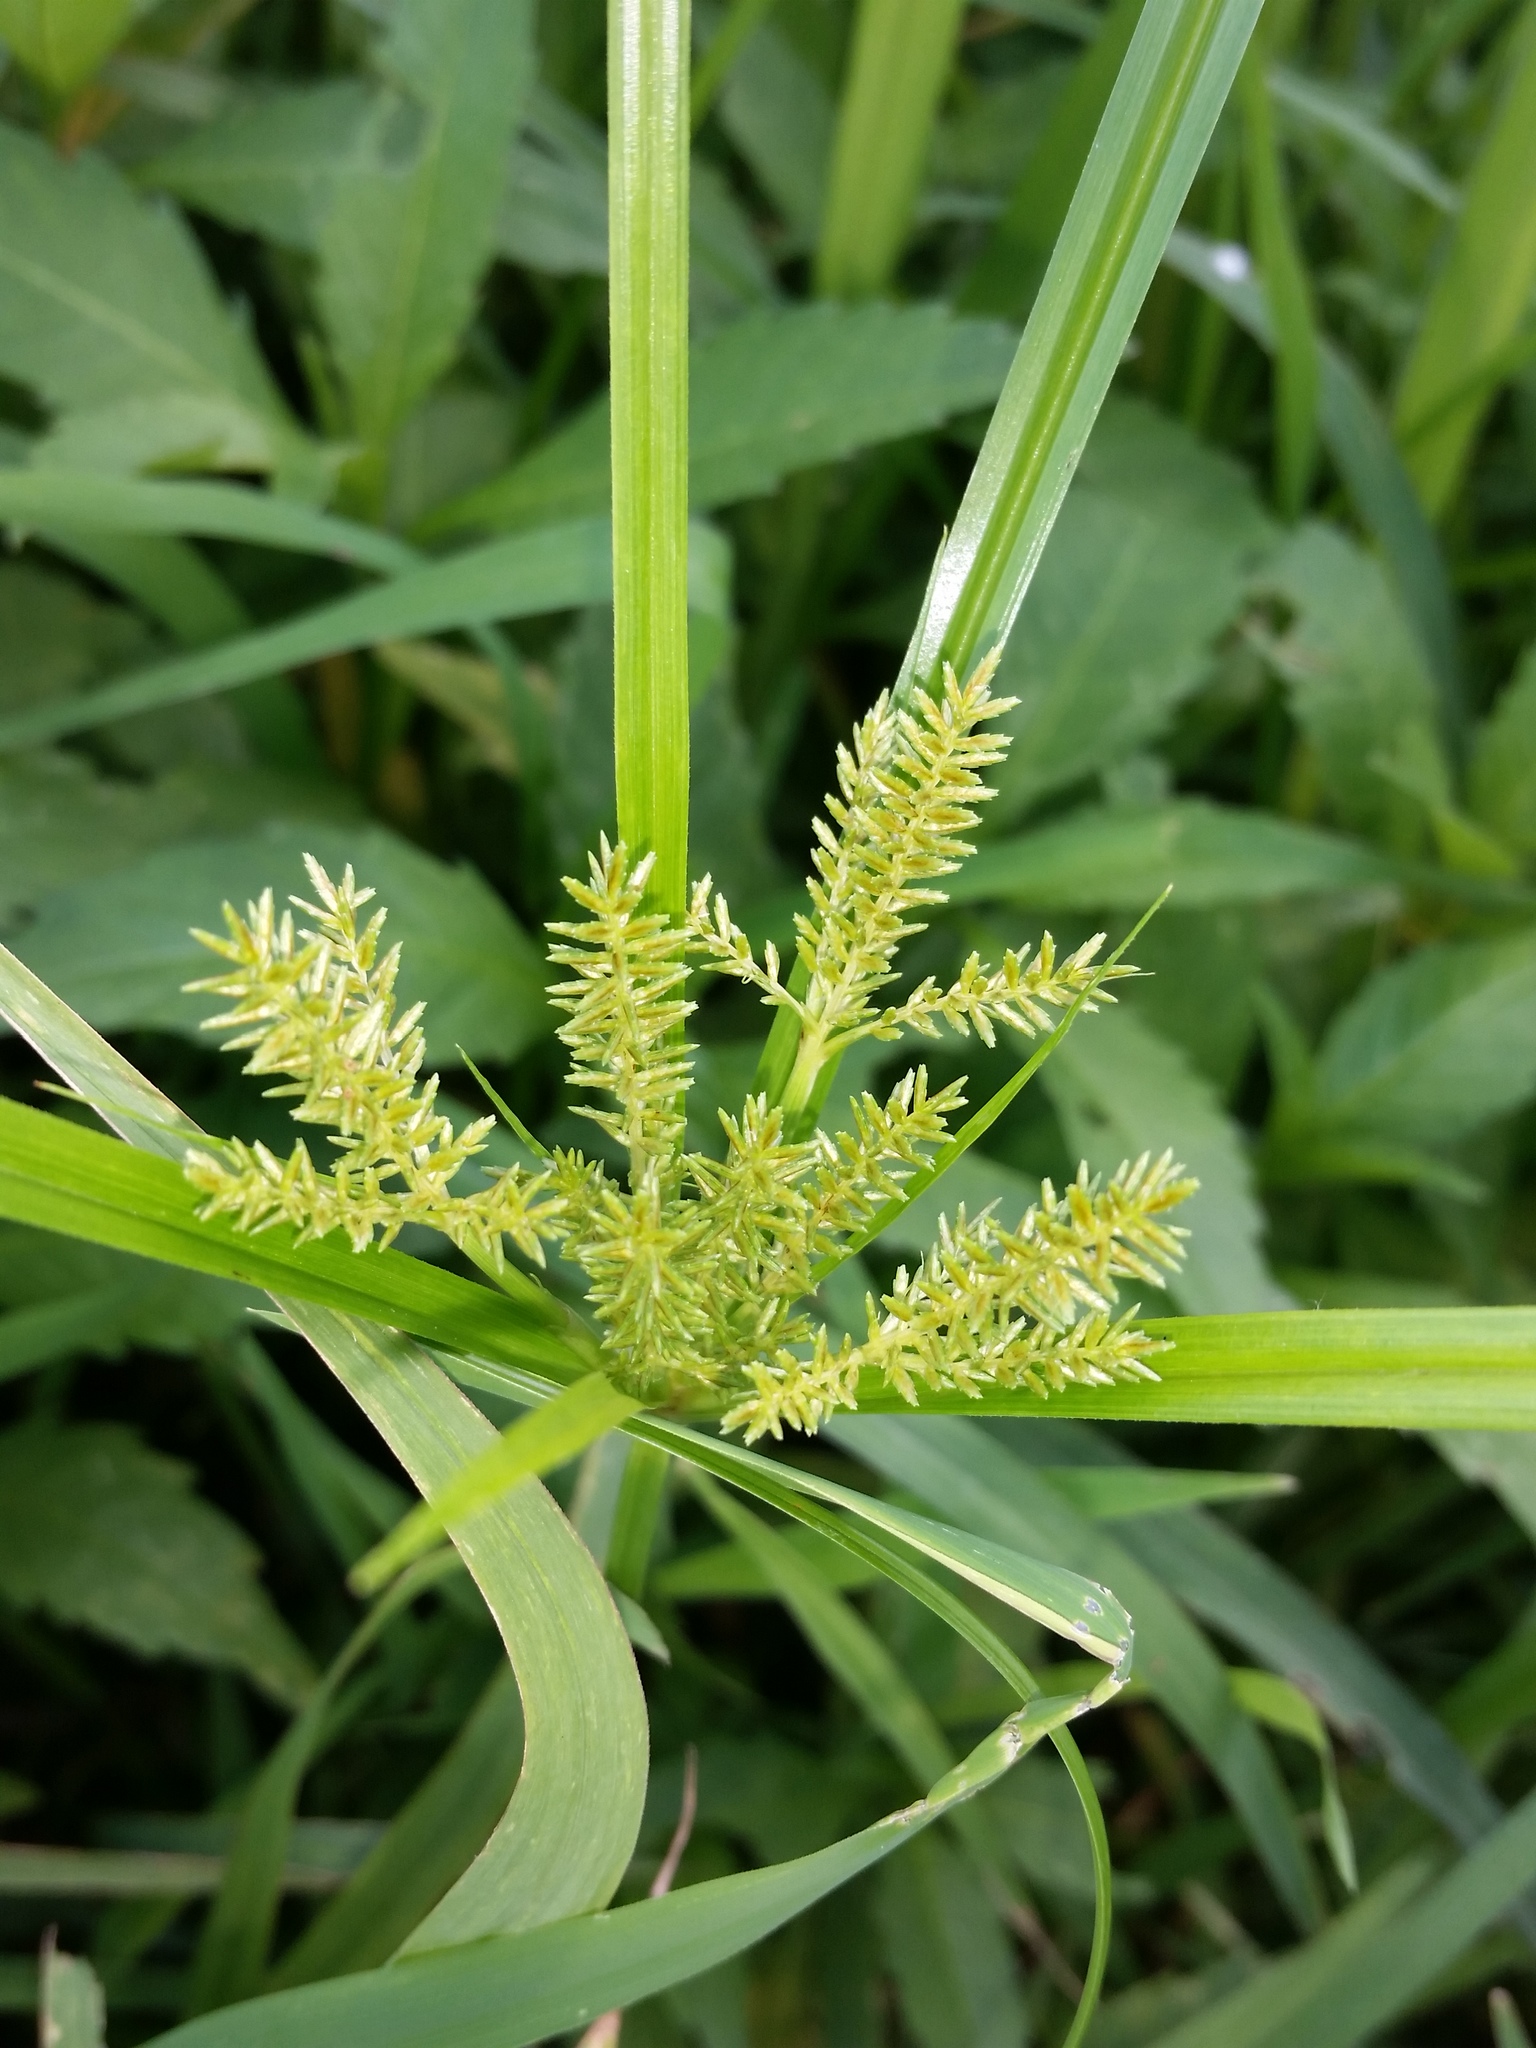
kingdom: Plantae
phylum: Tracheophyta
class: Liliopsida
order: Poales
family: Cyperaceae
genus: Cyperus
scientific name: Cyperus erythrorhizos
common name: Red-root flat sedge
